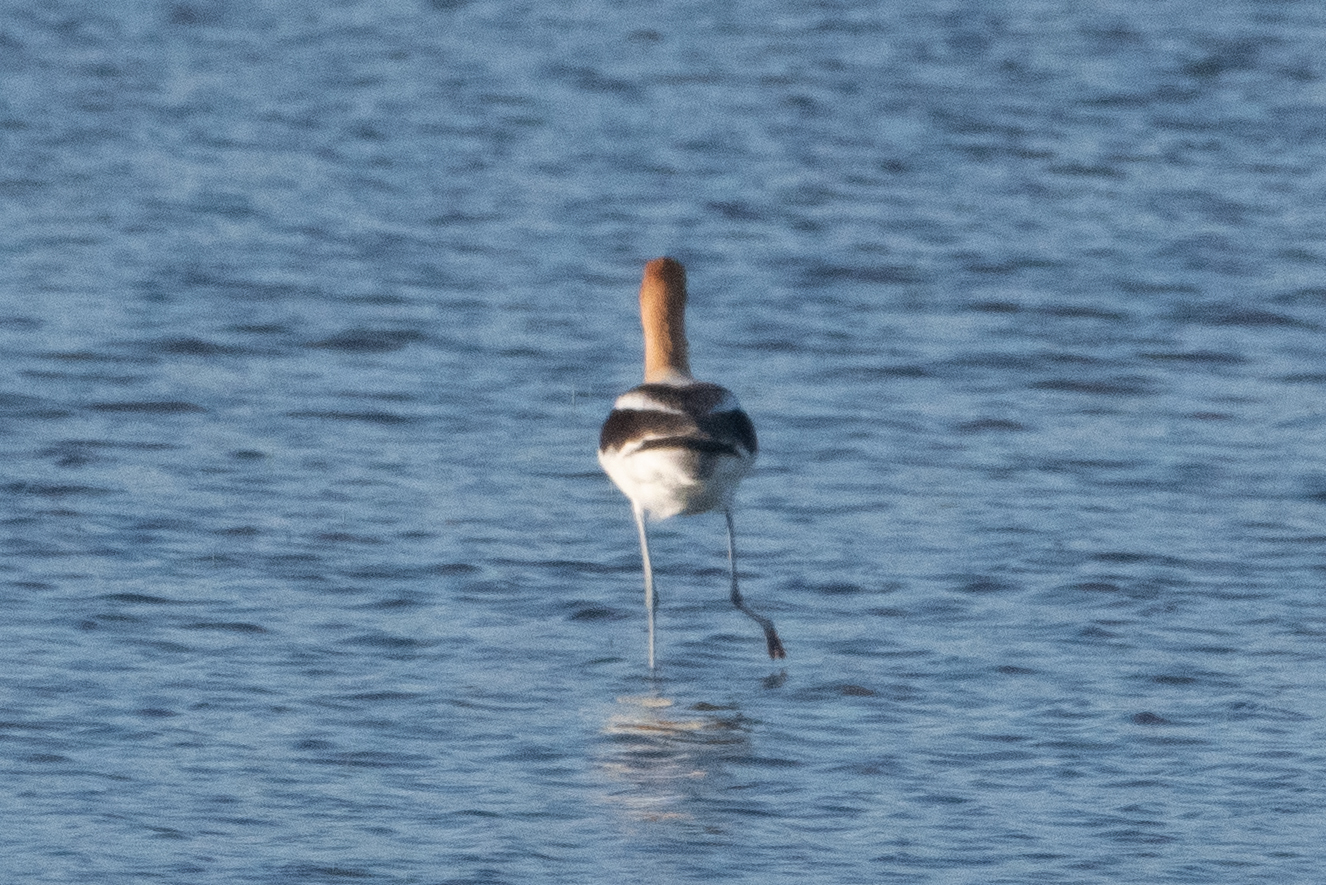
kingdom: Animalia
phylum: Chordata
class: Aves
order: Charadriiformes
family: Recurvirostridae
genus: Recurvirostra
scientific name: Recurvirostra americana
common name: American avocet
